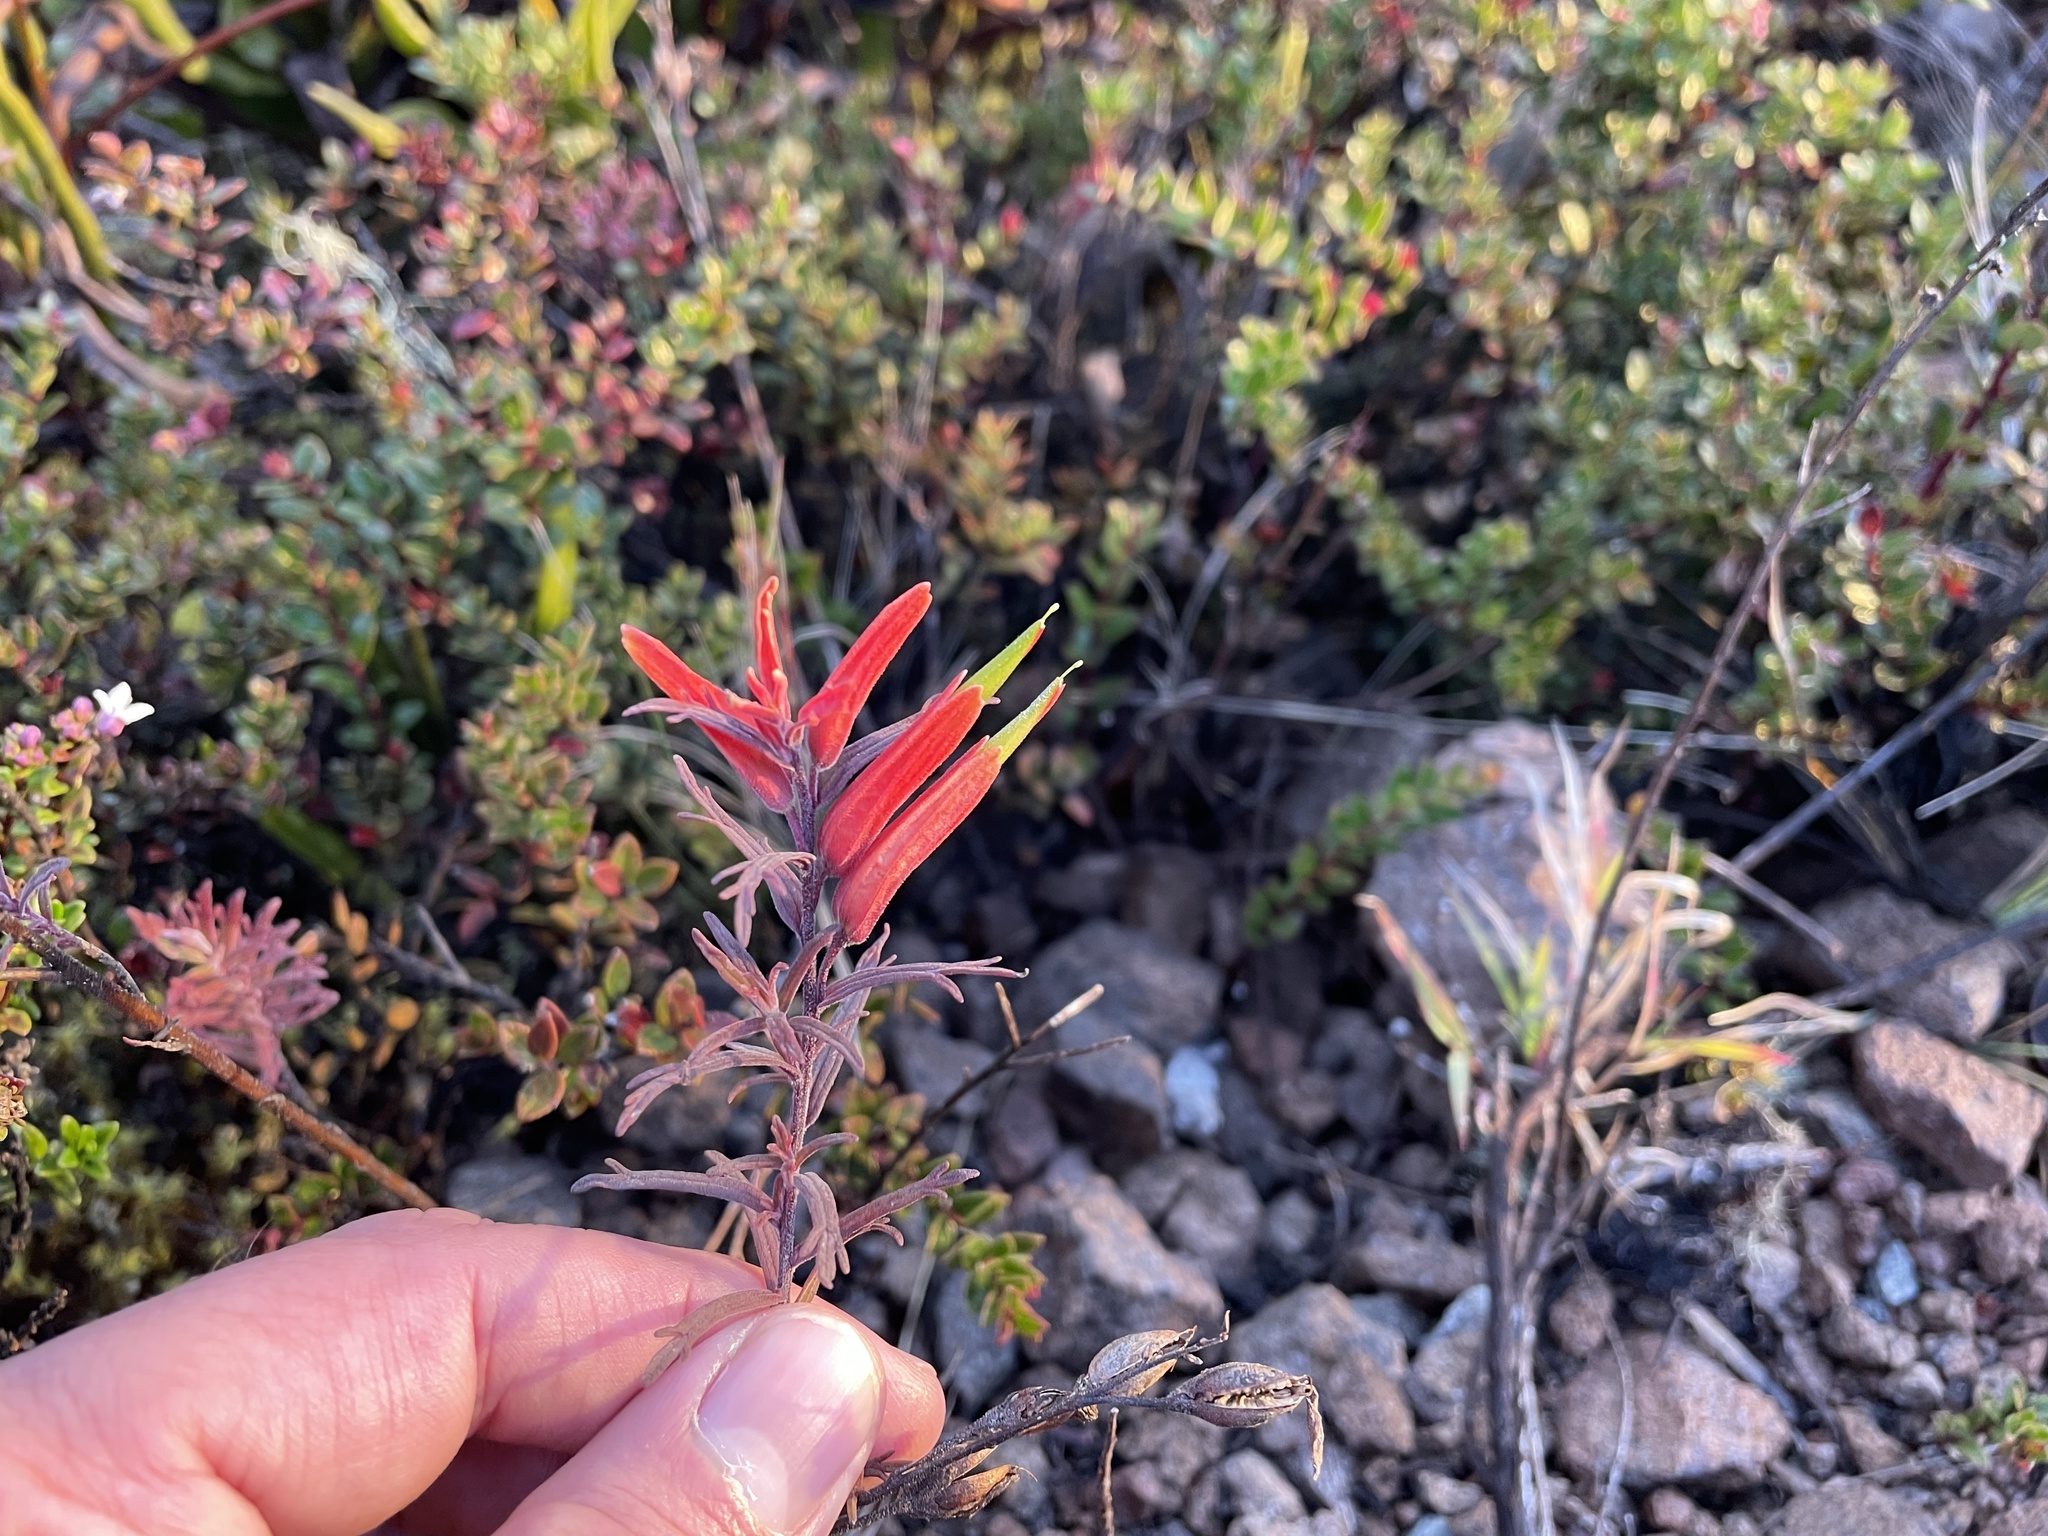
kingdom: Plantae
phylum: Tracheophyta
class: Magnoliopsida
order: Lamiales
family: Orobanchaceae
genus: Castilleja
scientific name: Castilleja quirosii
